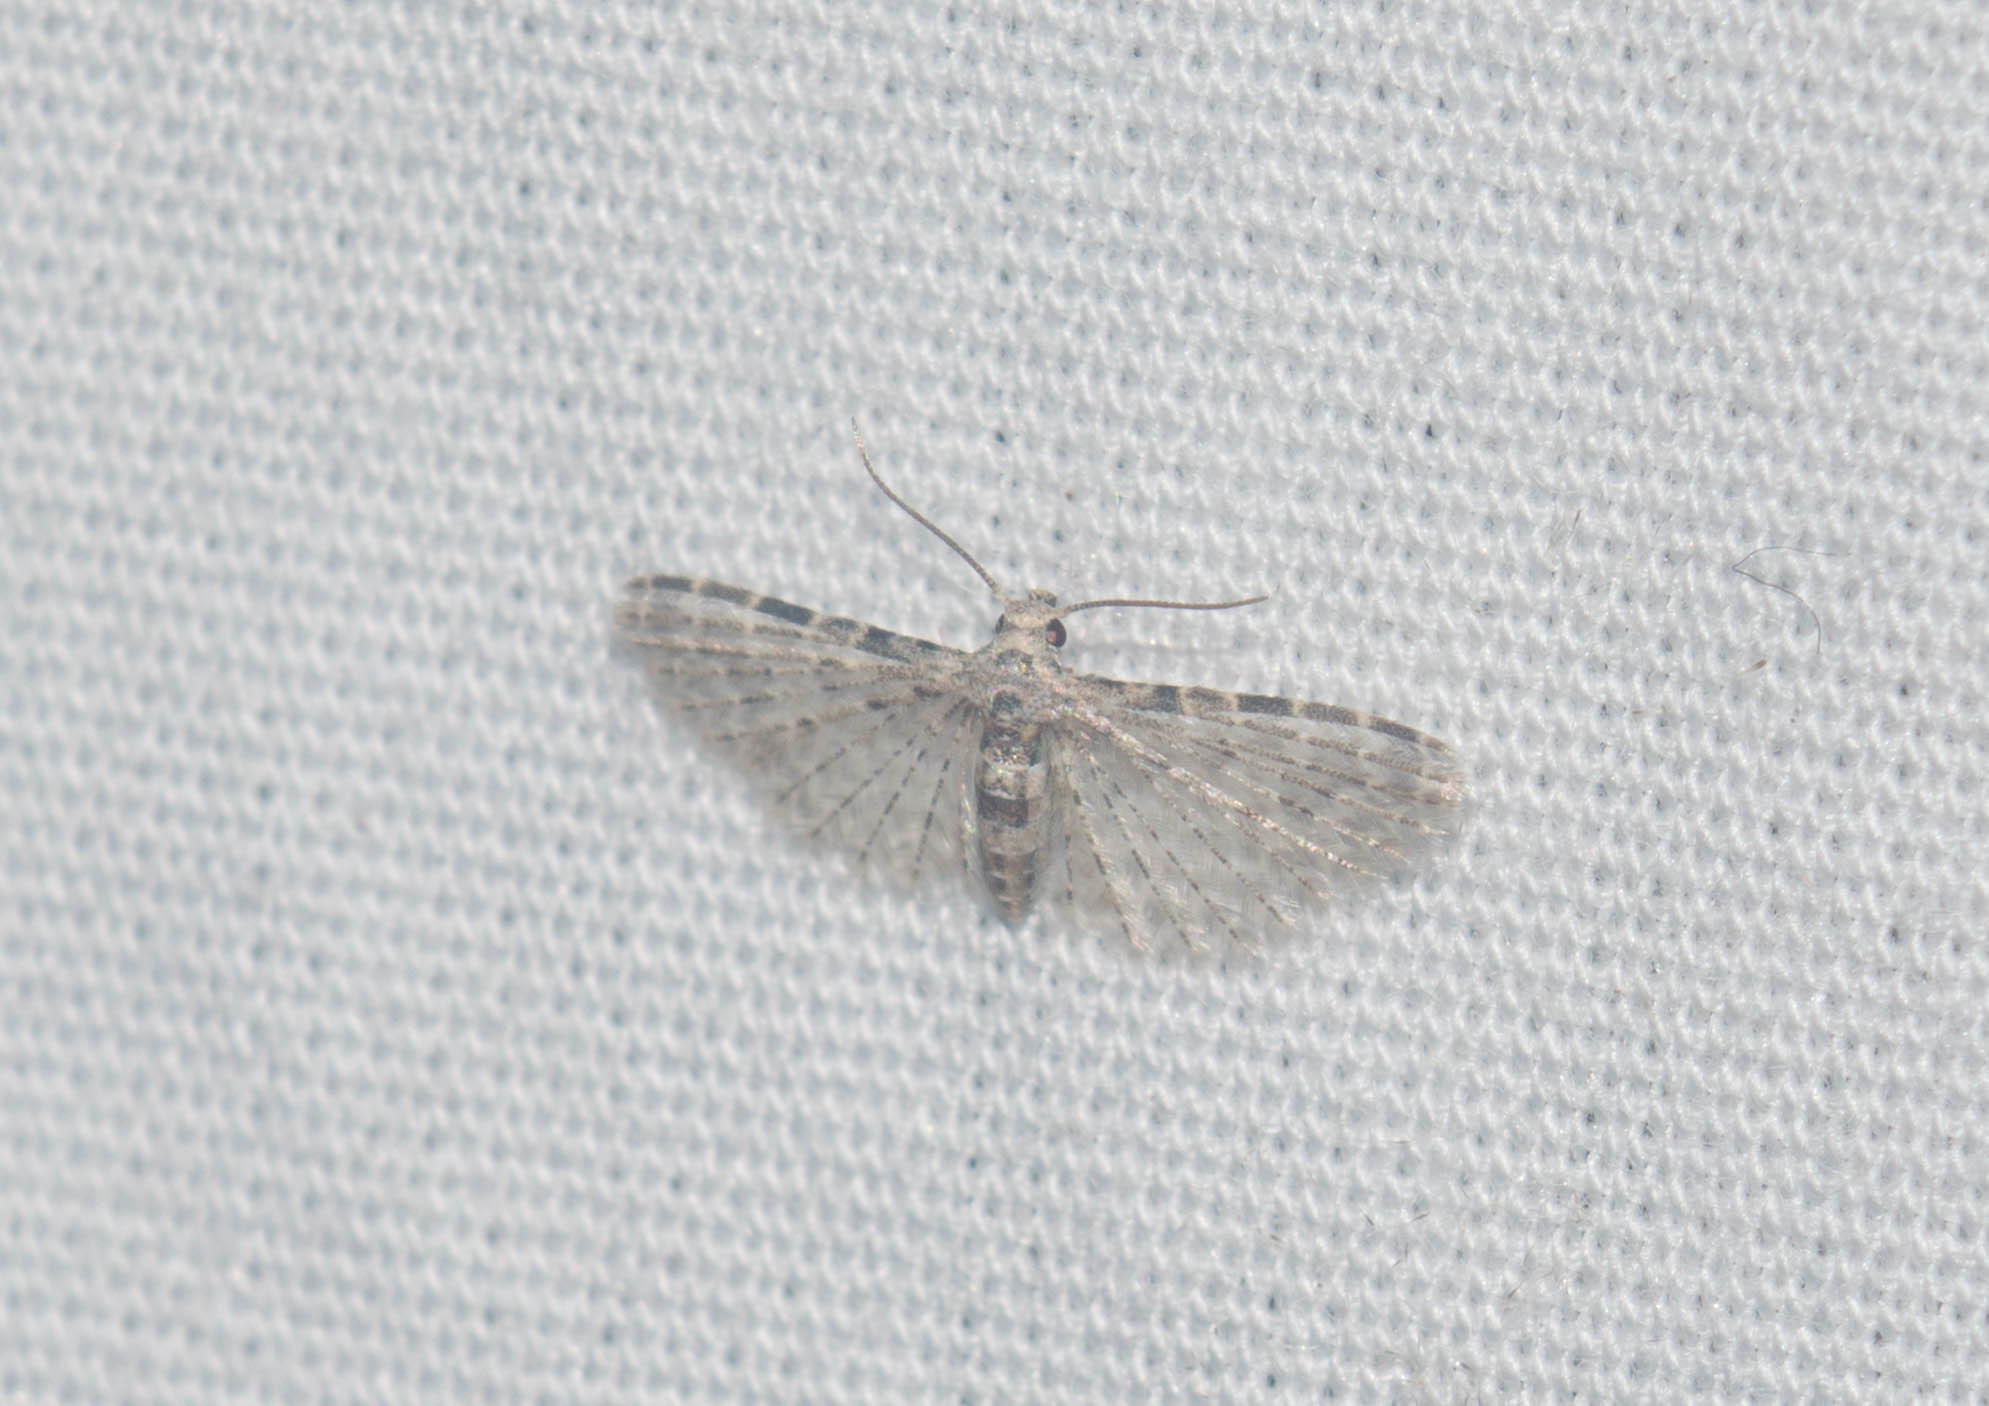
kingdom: Animalia
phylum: Arthropoda
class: Insecta
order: Lepidoptera
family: Alucitidae
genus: Alucita
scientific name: Alucita objurgatella
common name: Moth
